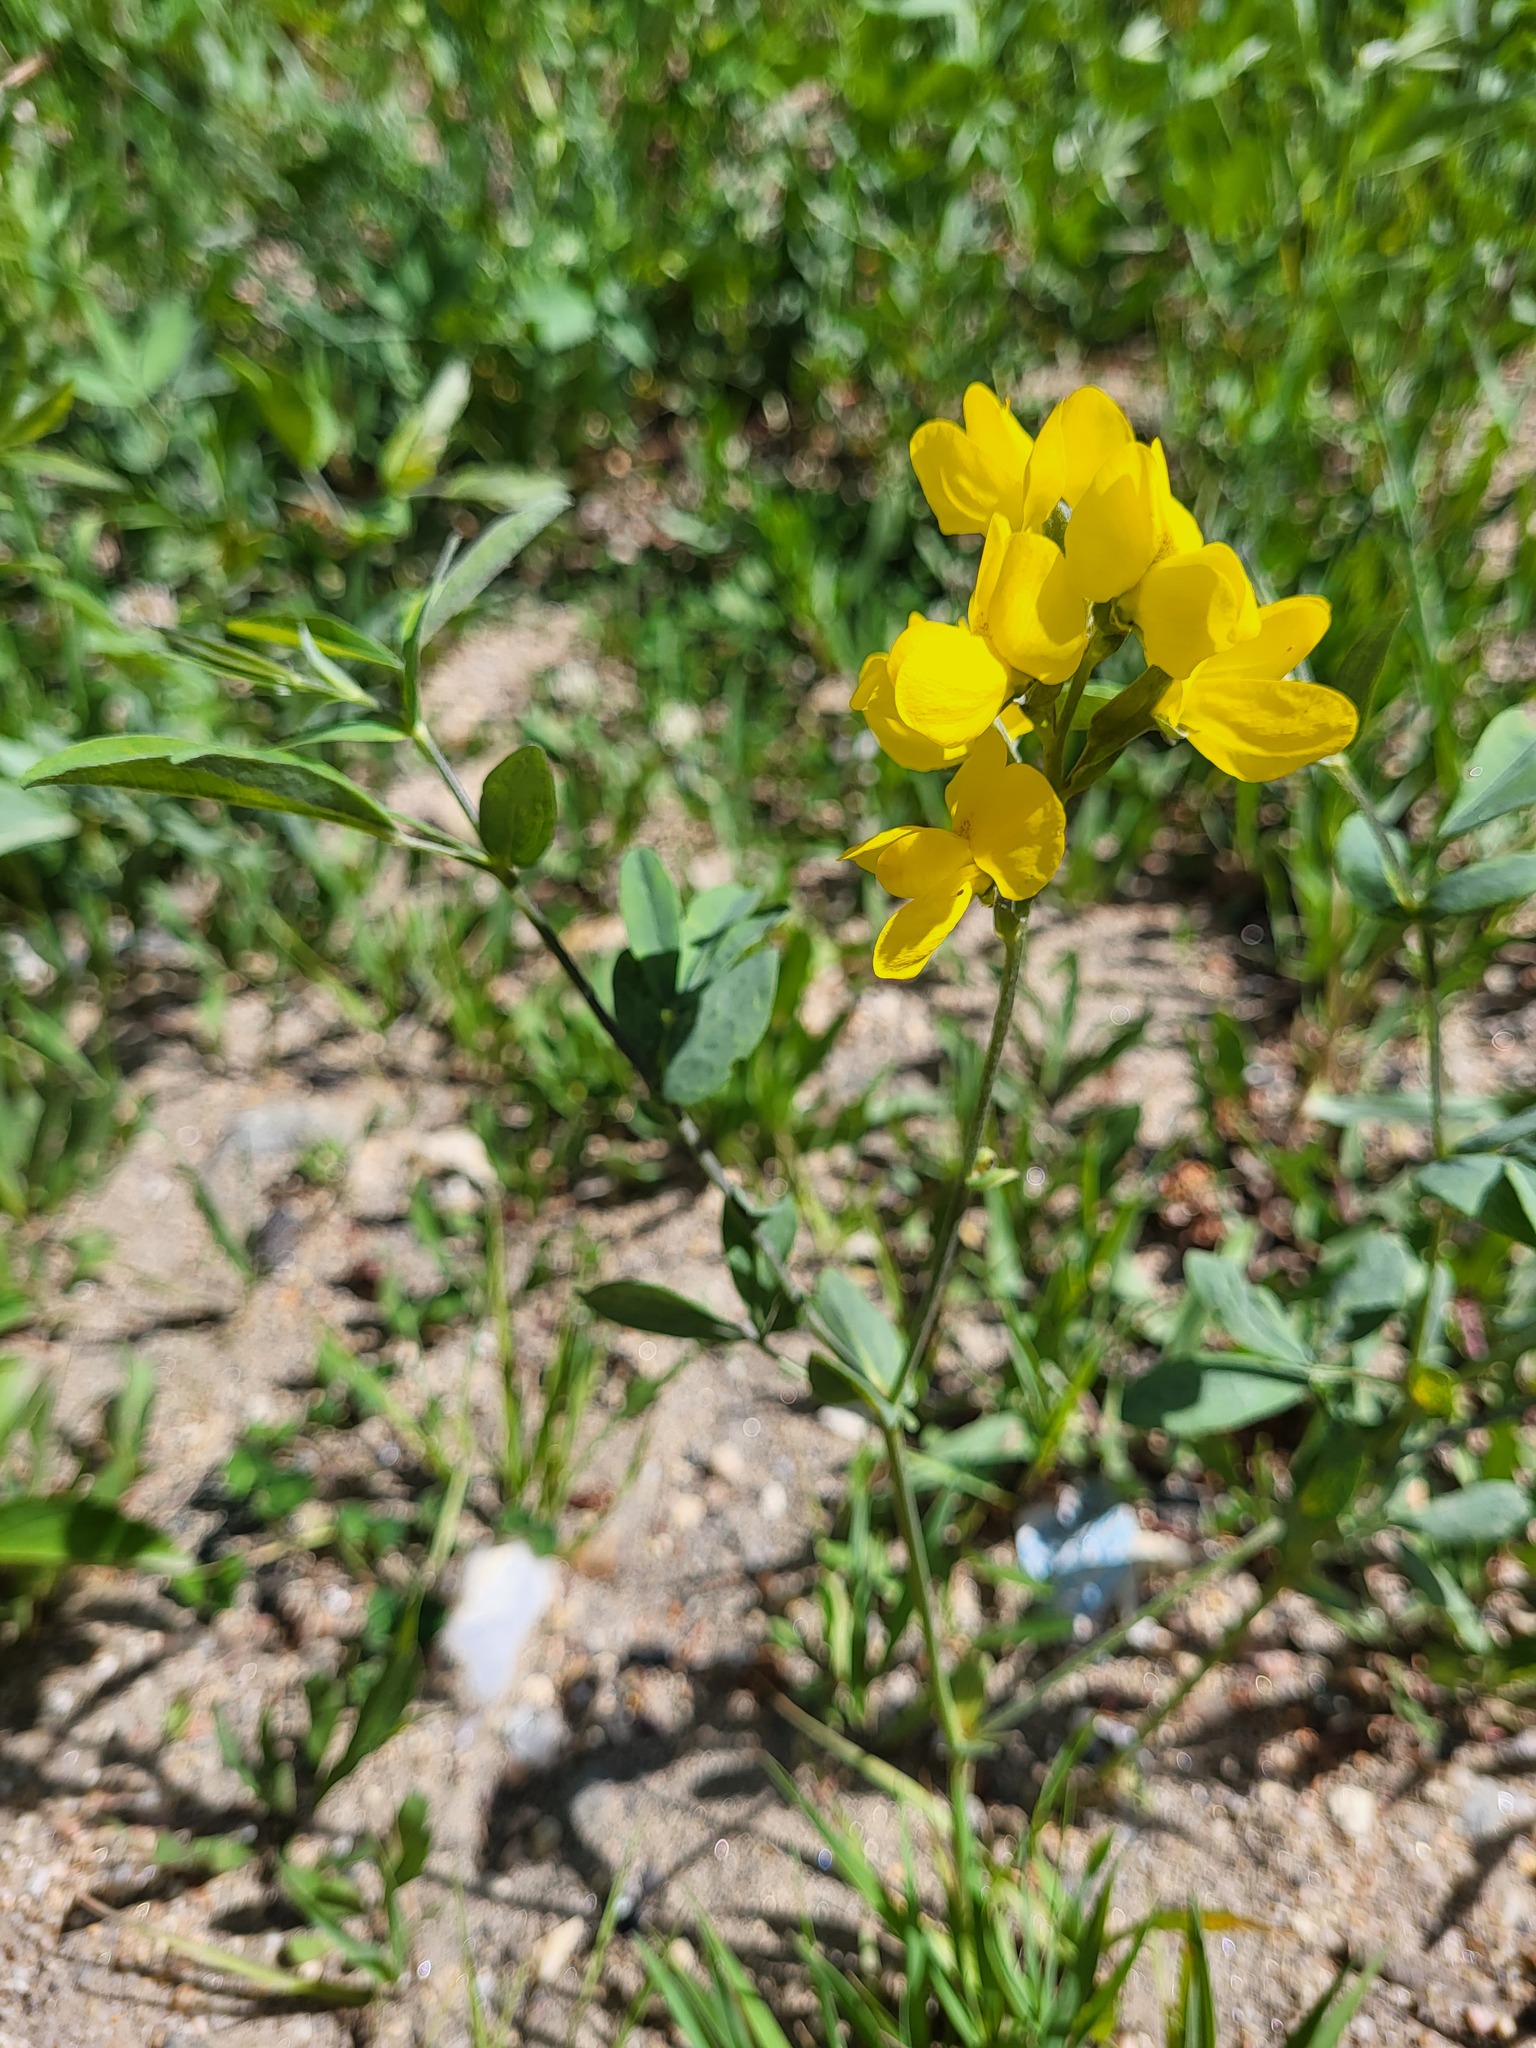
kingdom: Plantae
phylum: Tracheophyta
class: Magnoliopsida
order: Fabales
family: Fabaceae
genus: Thermopsis
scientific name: Thermopsis rhombifolia
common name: Circle-pod-pea
